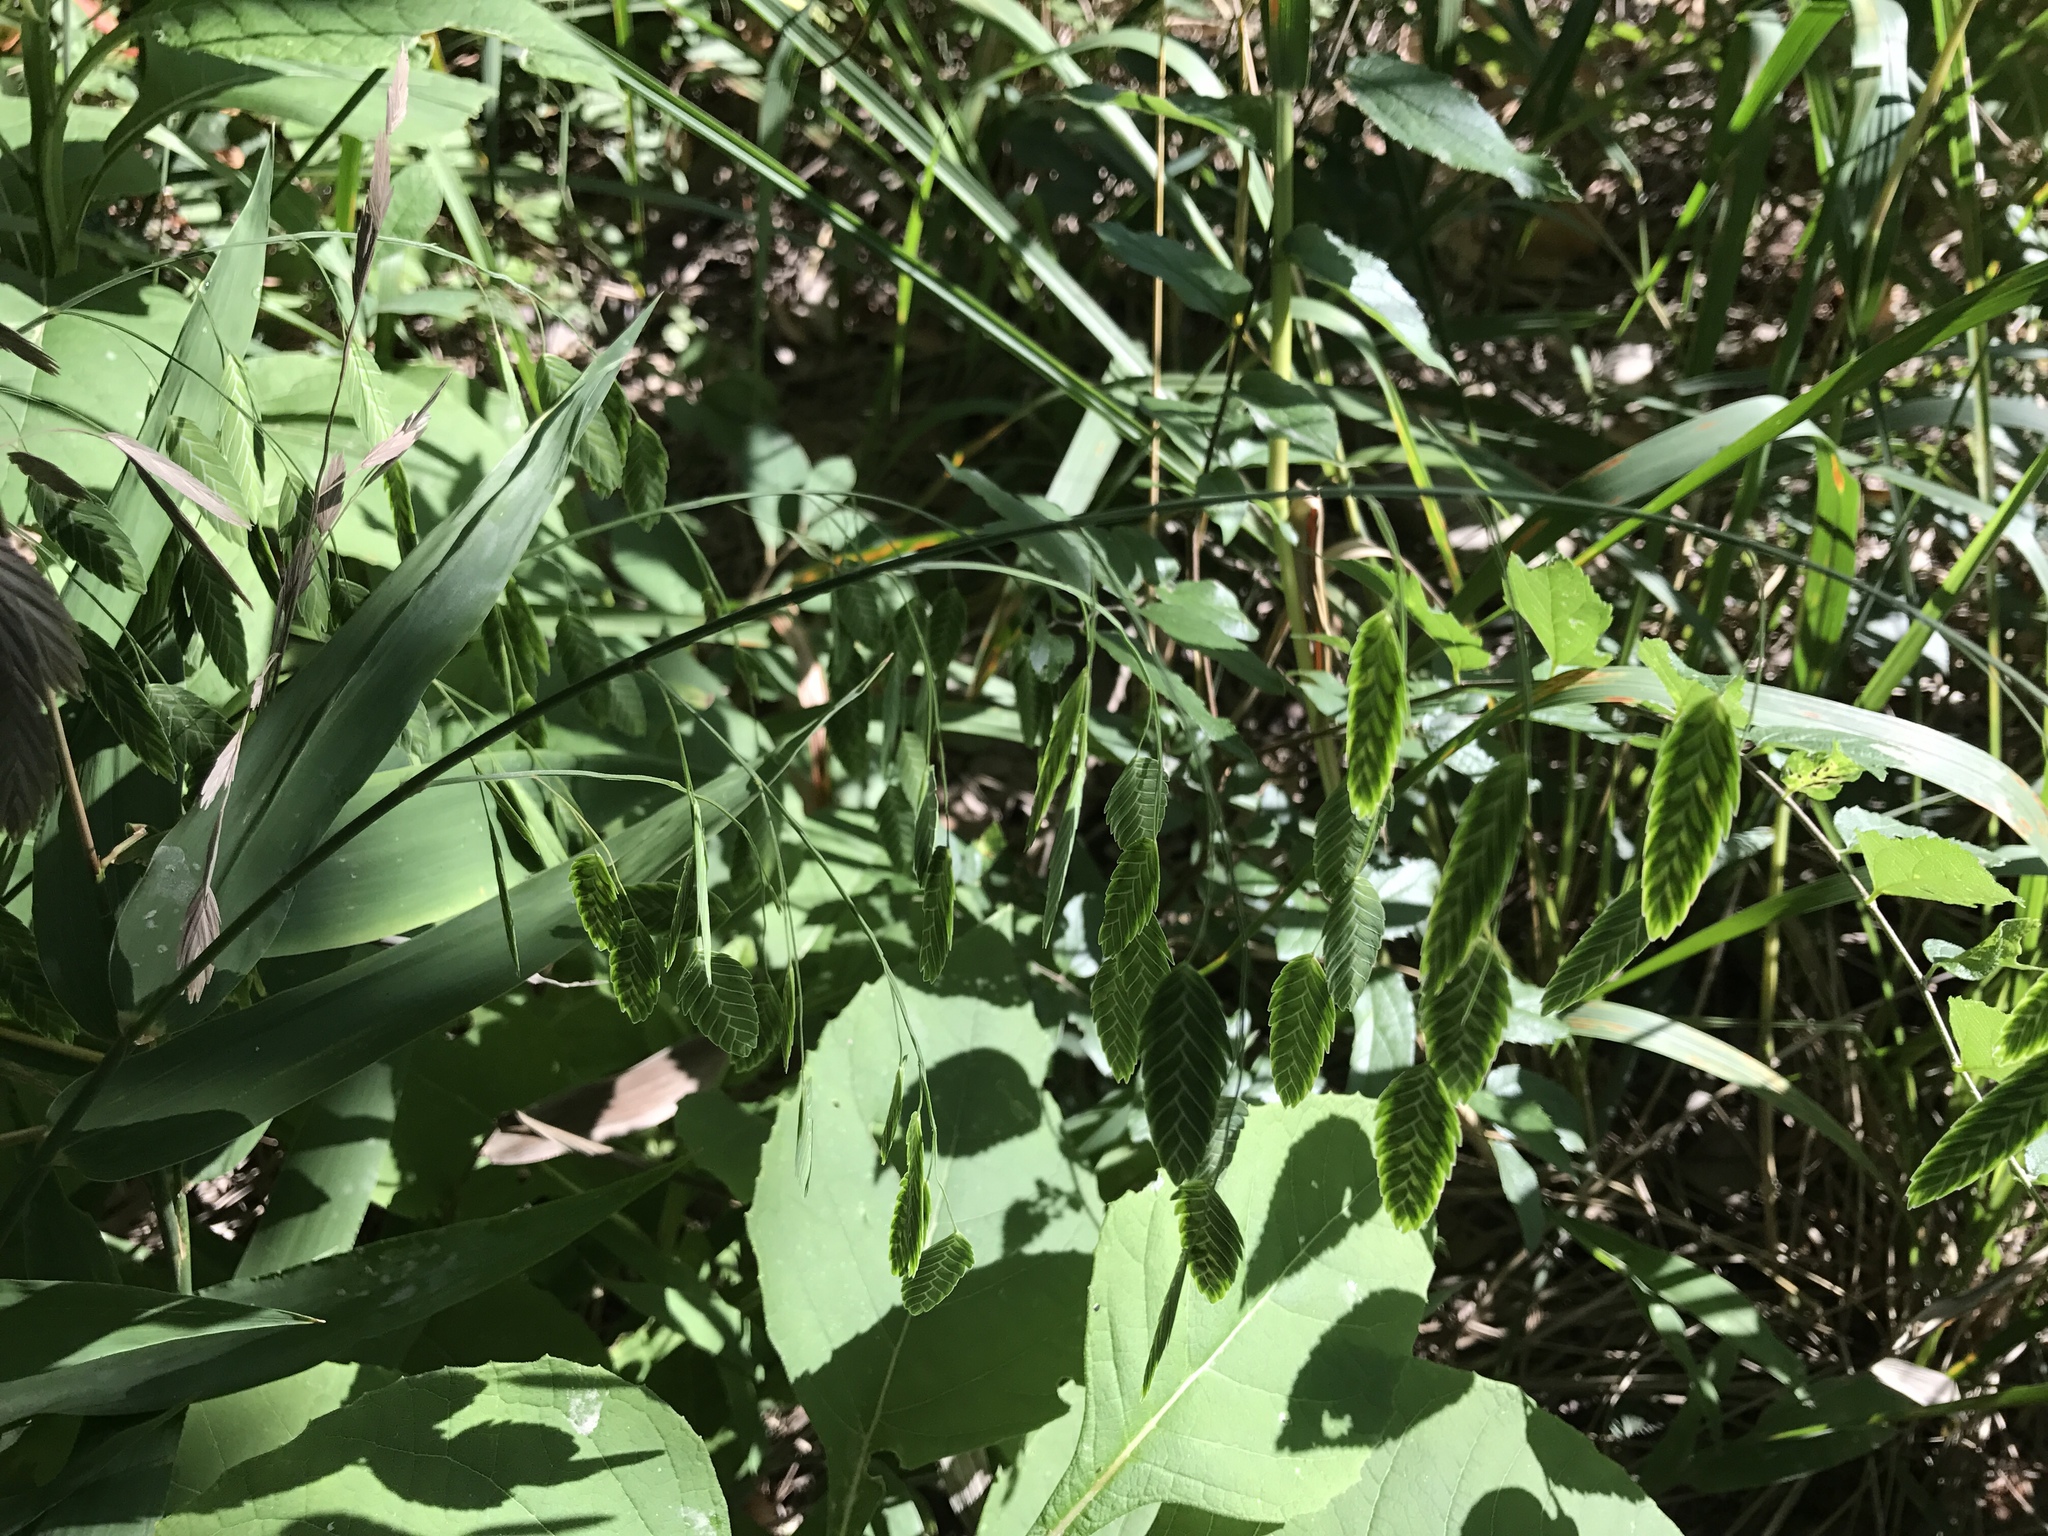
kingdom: Plantae
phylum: Tracheophyta
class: Liliopsida
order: Poales
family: Poaceae
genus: Chasmanthium
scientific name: Chasmanthium latifolium
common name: Broad-leaved chasmanthium
